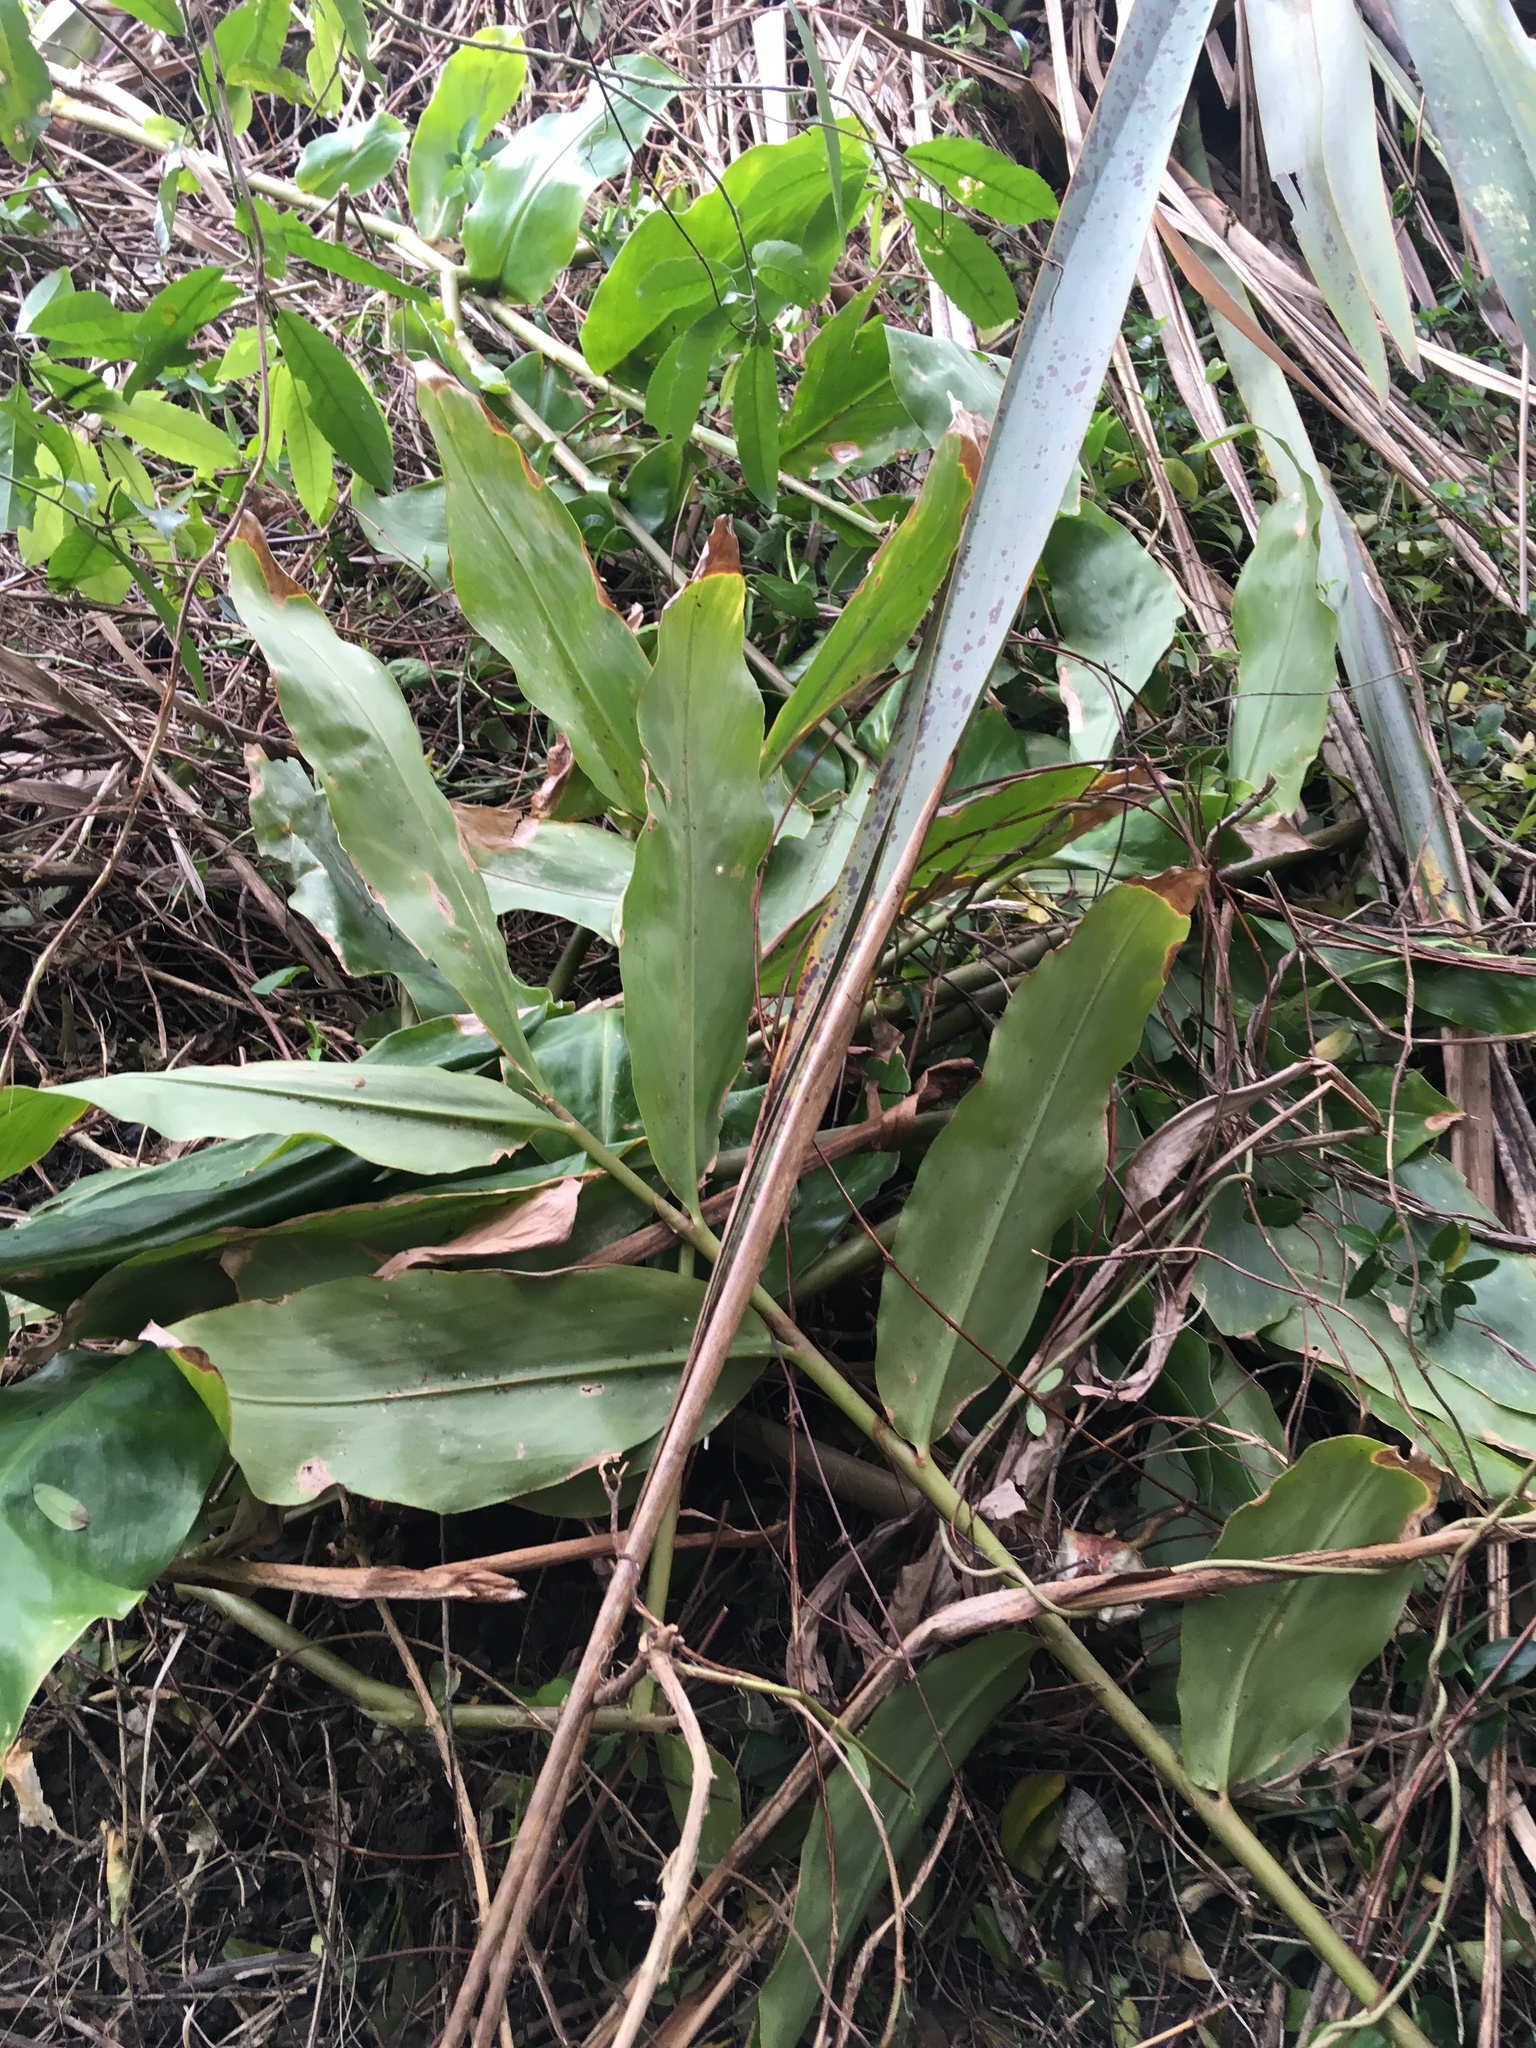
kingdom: Plantae
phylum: Tracheophyta
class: Liliopsida
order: Zingiberales
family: Zingiberaceae
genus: Hedychium
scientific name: Hedychium gardnerianum
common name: Himalayan ginger
